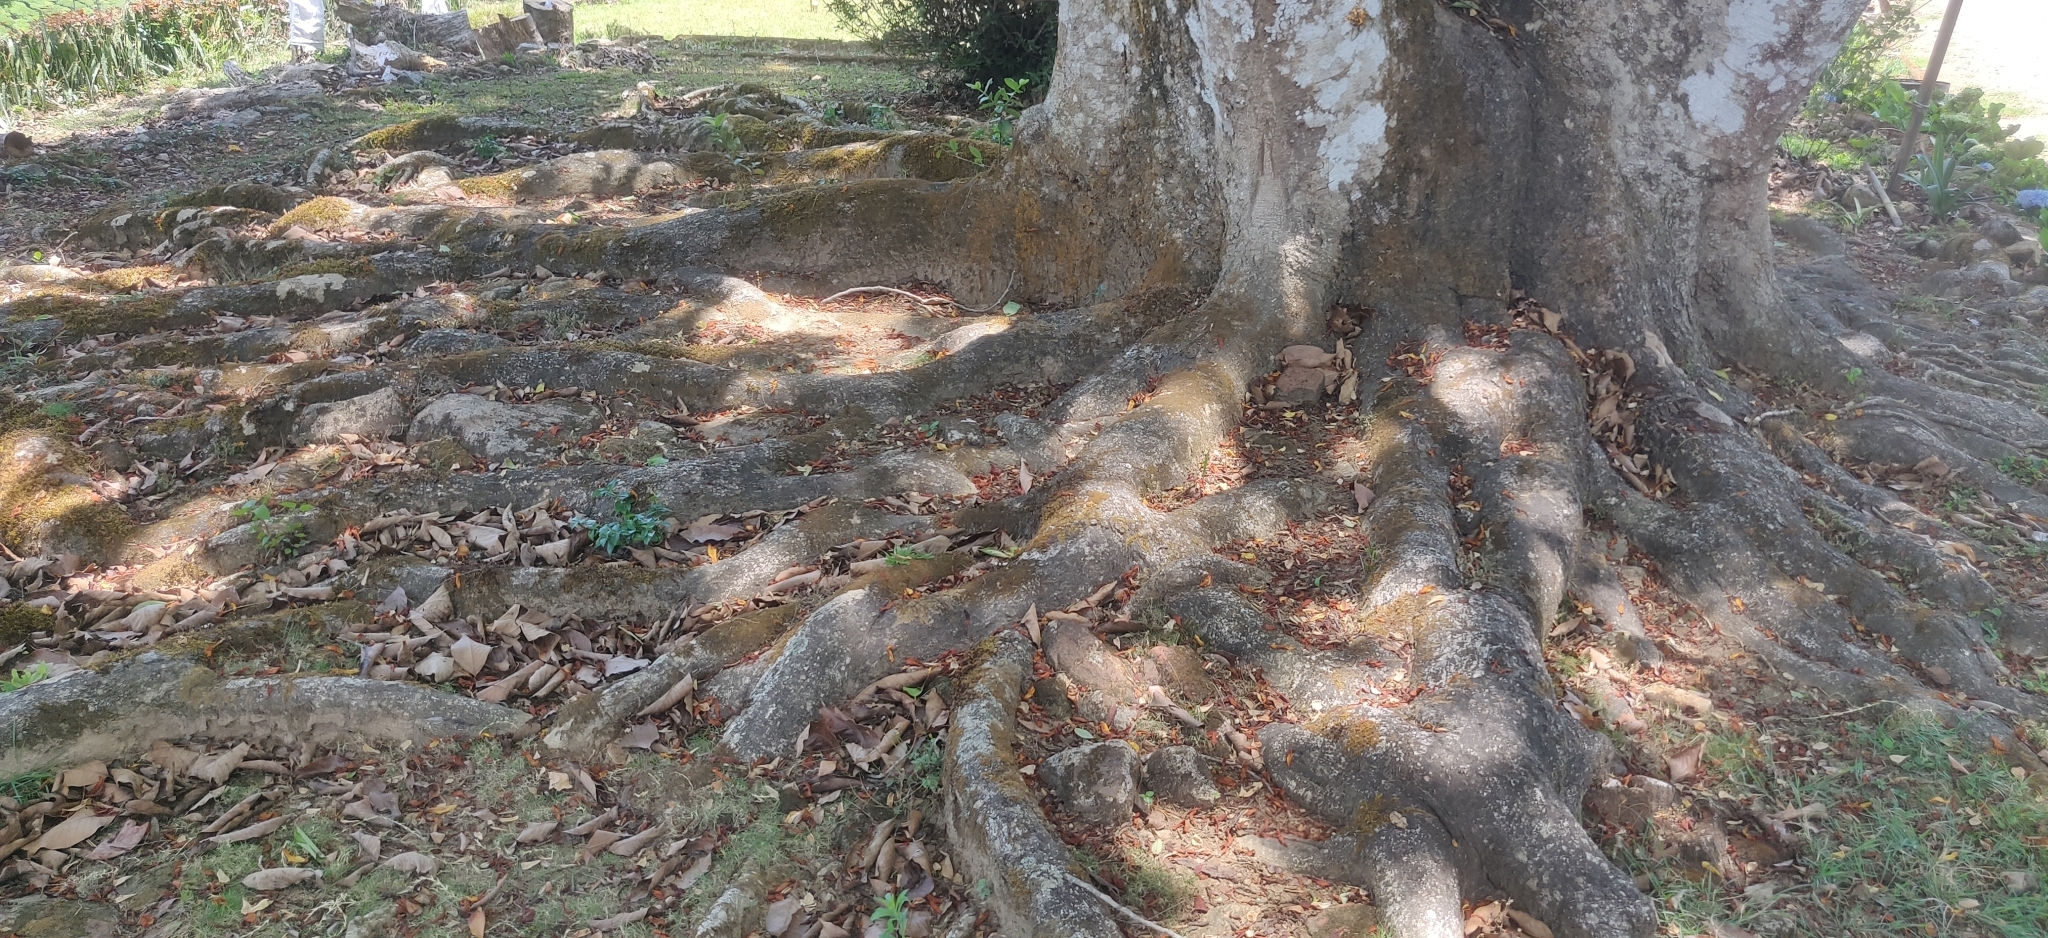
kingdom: Plantae
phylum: Tracheophyta
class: Magnoliopsida
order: Magnoliales
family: Magnoliaceae
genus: Magnolia
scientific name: Magnolia champaca
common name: Champak
